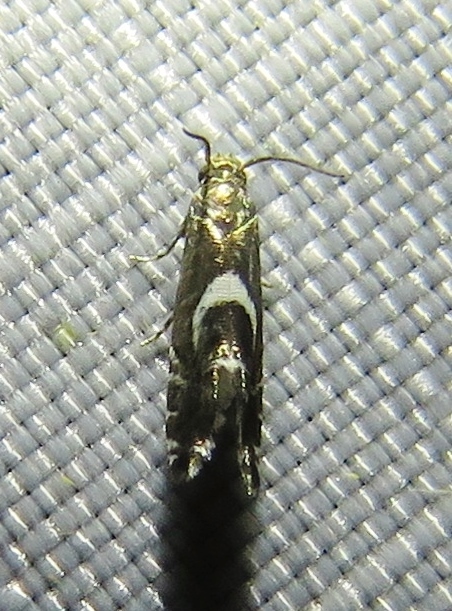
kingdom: Animalia
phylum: Arthropoda
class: Insecta
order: Lepidoptera
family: Glyphipterigidae
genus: Glyphipterix
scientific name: Glyphipterix Diploschizia impigritella
